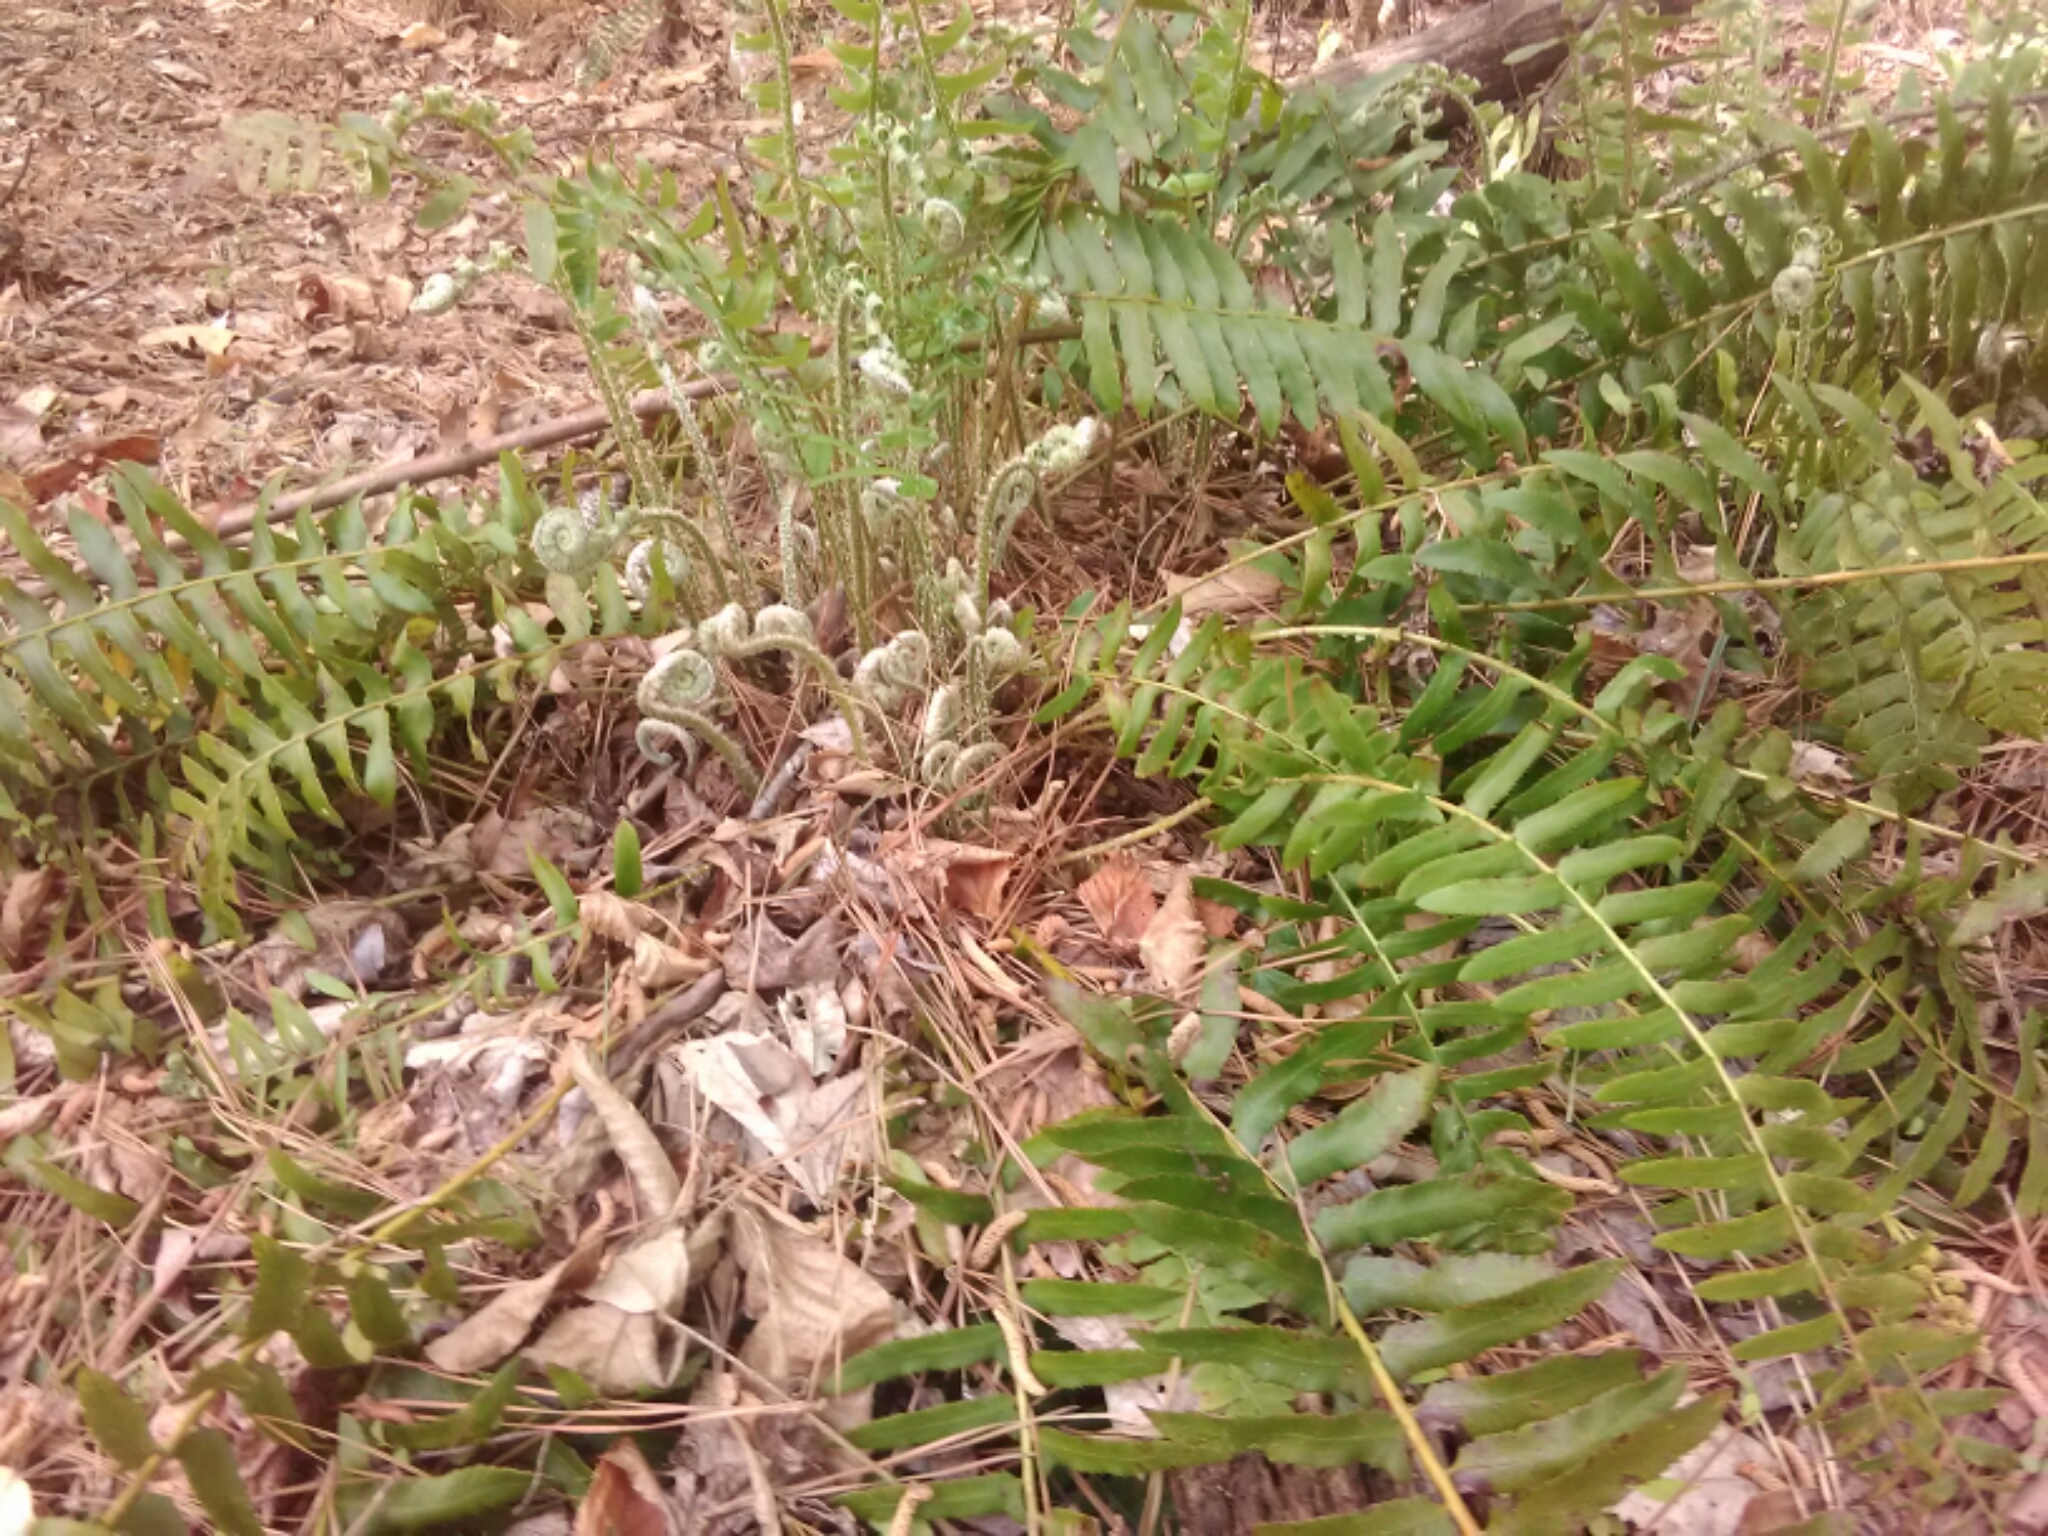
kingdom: Plantae
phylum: Tracheophyta
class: Polypodiopsida
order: Polypodiales
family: Dryopteridaceae
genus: Polystichum
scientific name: Polystichum acrostichoides
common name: Christmas fern
